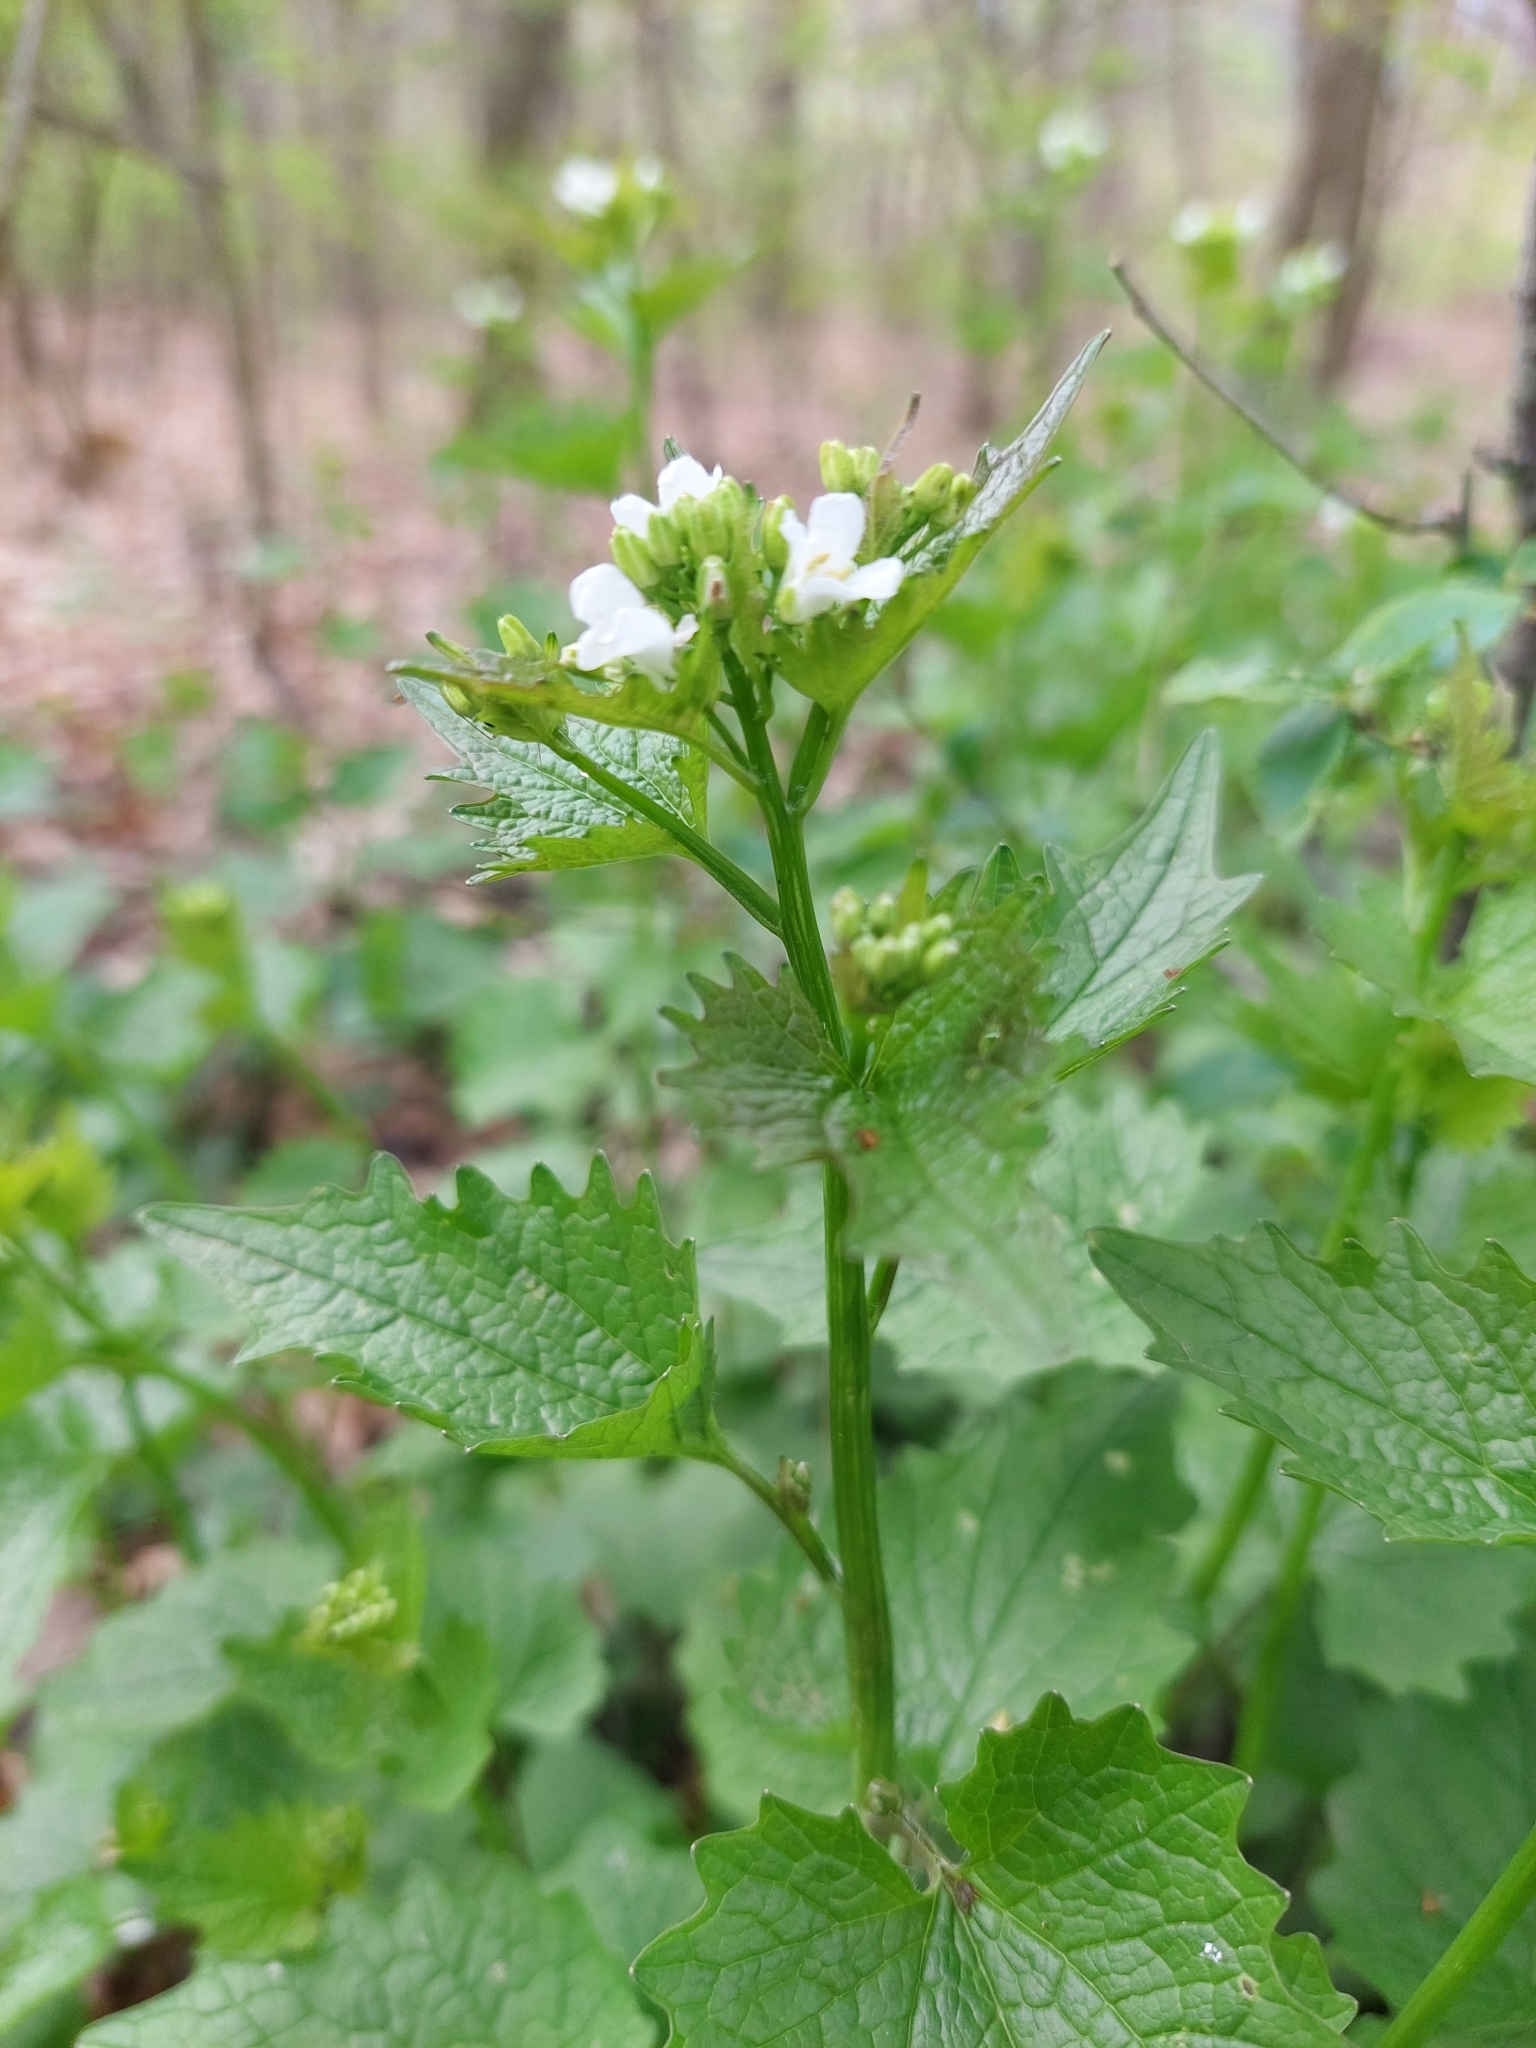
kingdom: Plantae
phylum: Tracheophyta
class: Magnoliopsida
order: Brassicales
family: Brassicaceae
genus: Alliaria
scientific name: Alliaria petiolata
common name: Garlic mustard
